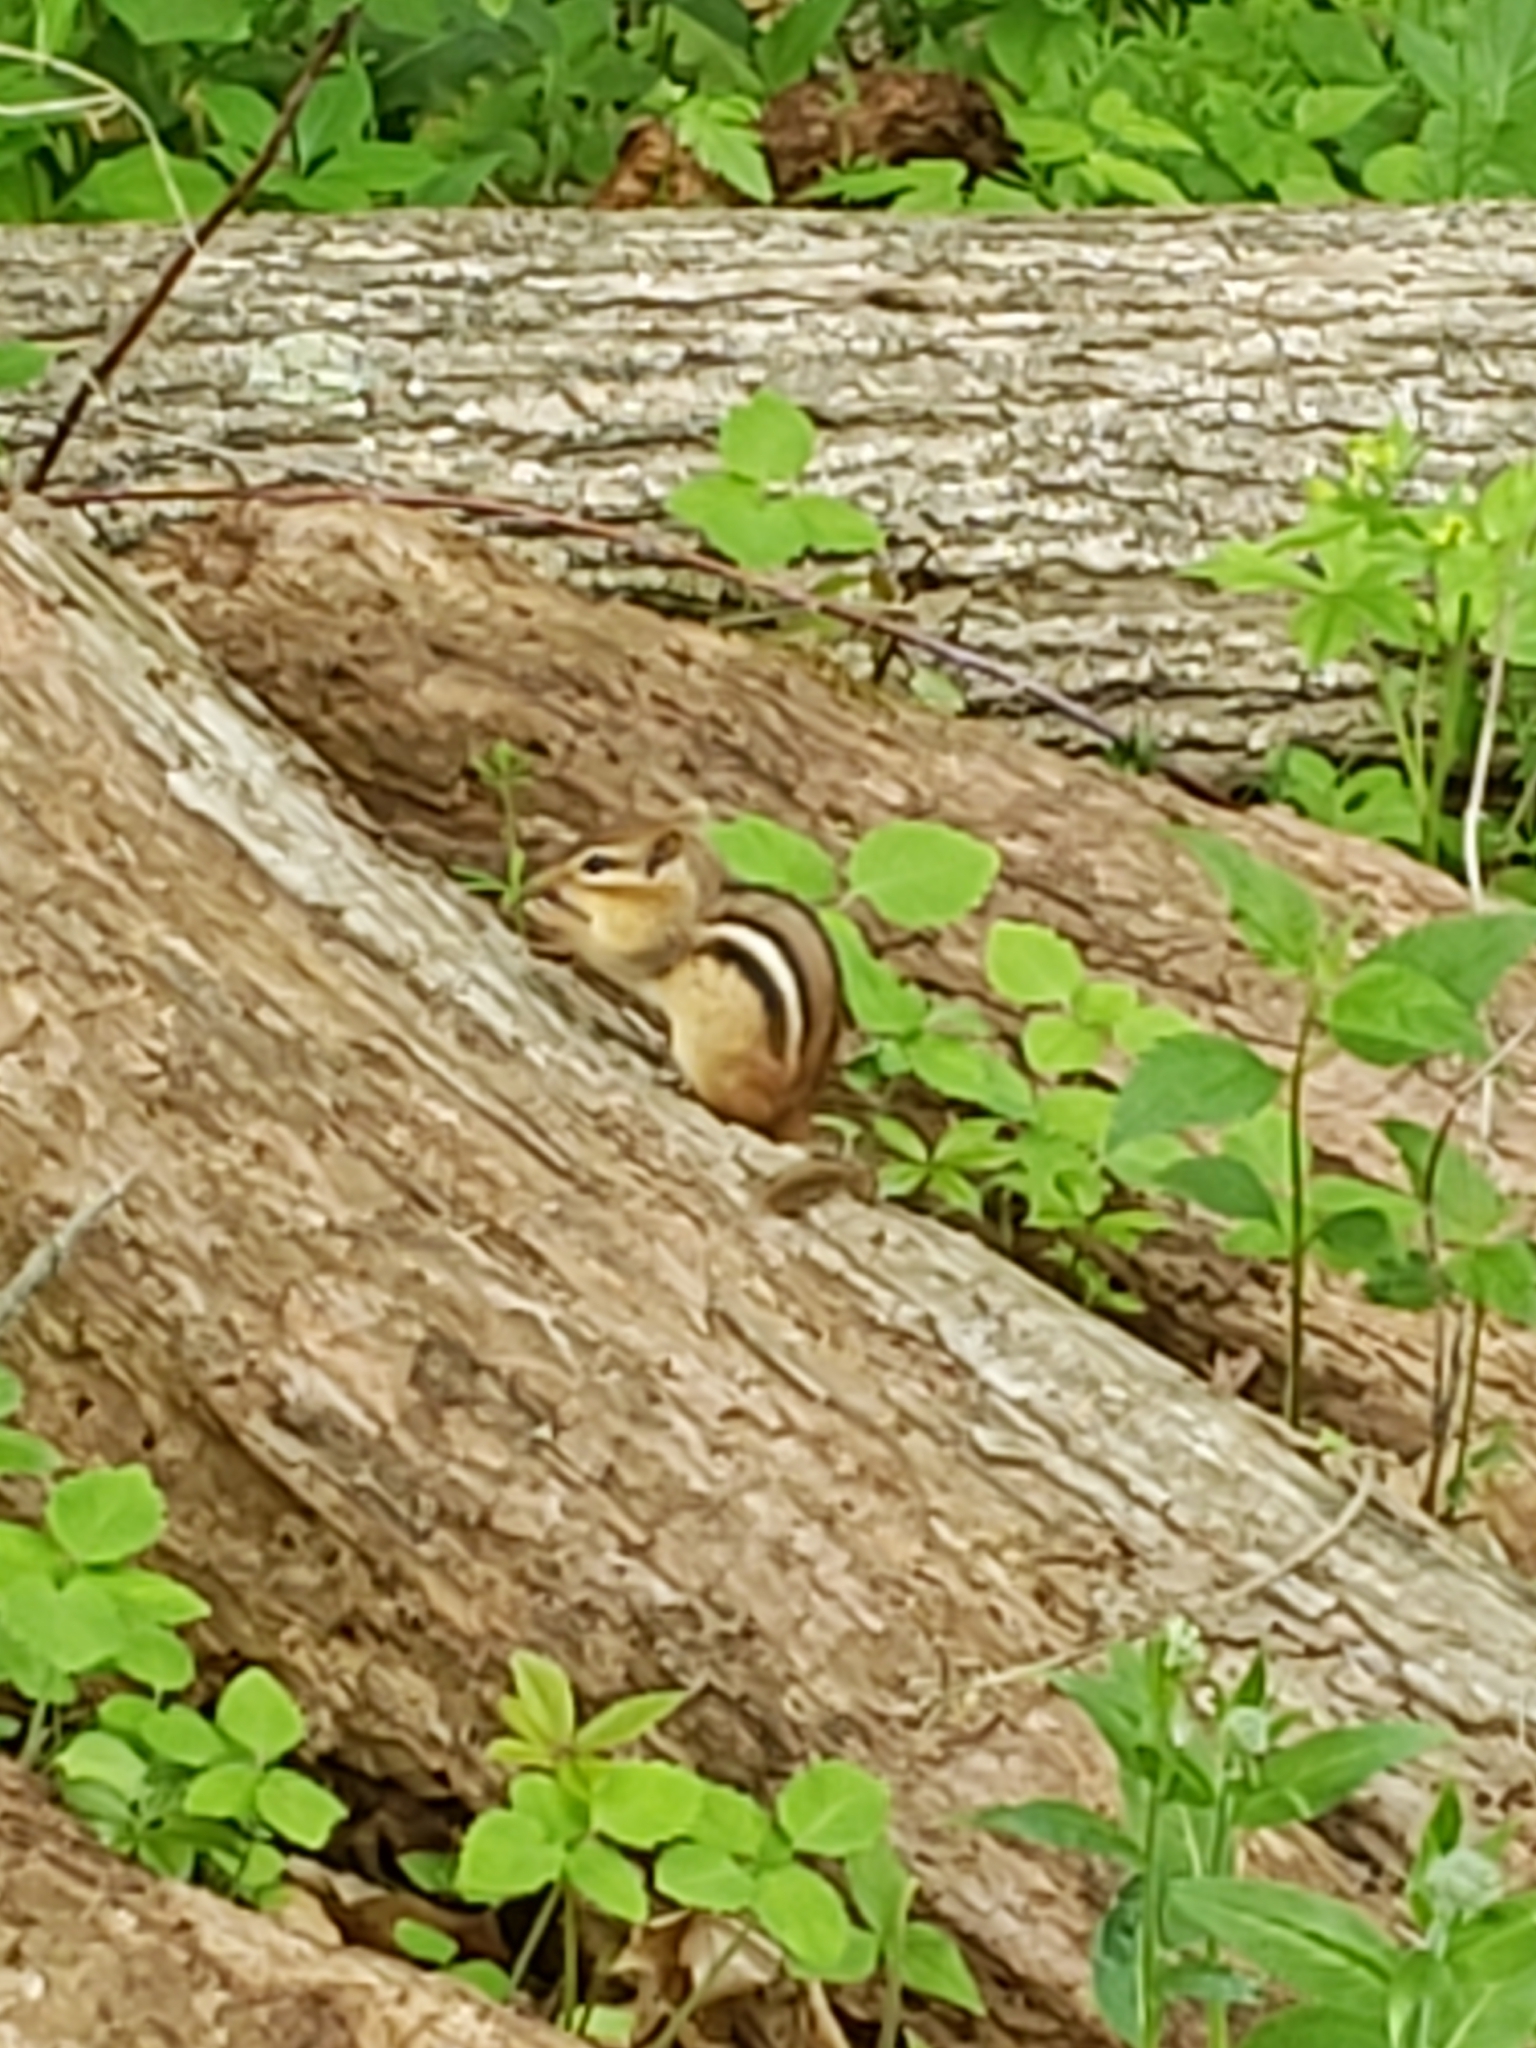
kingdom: Animalia
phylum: Chordata
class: Mammalia
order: Rodentia
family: Sciuridae
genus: Tamias
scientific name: Tamias striatus
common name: Eastern chipmunk
